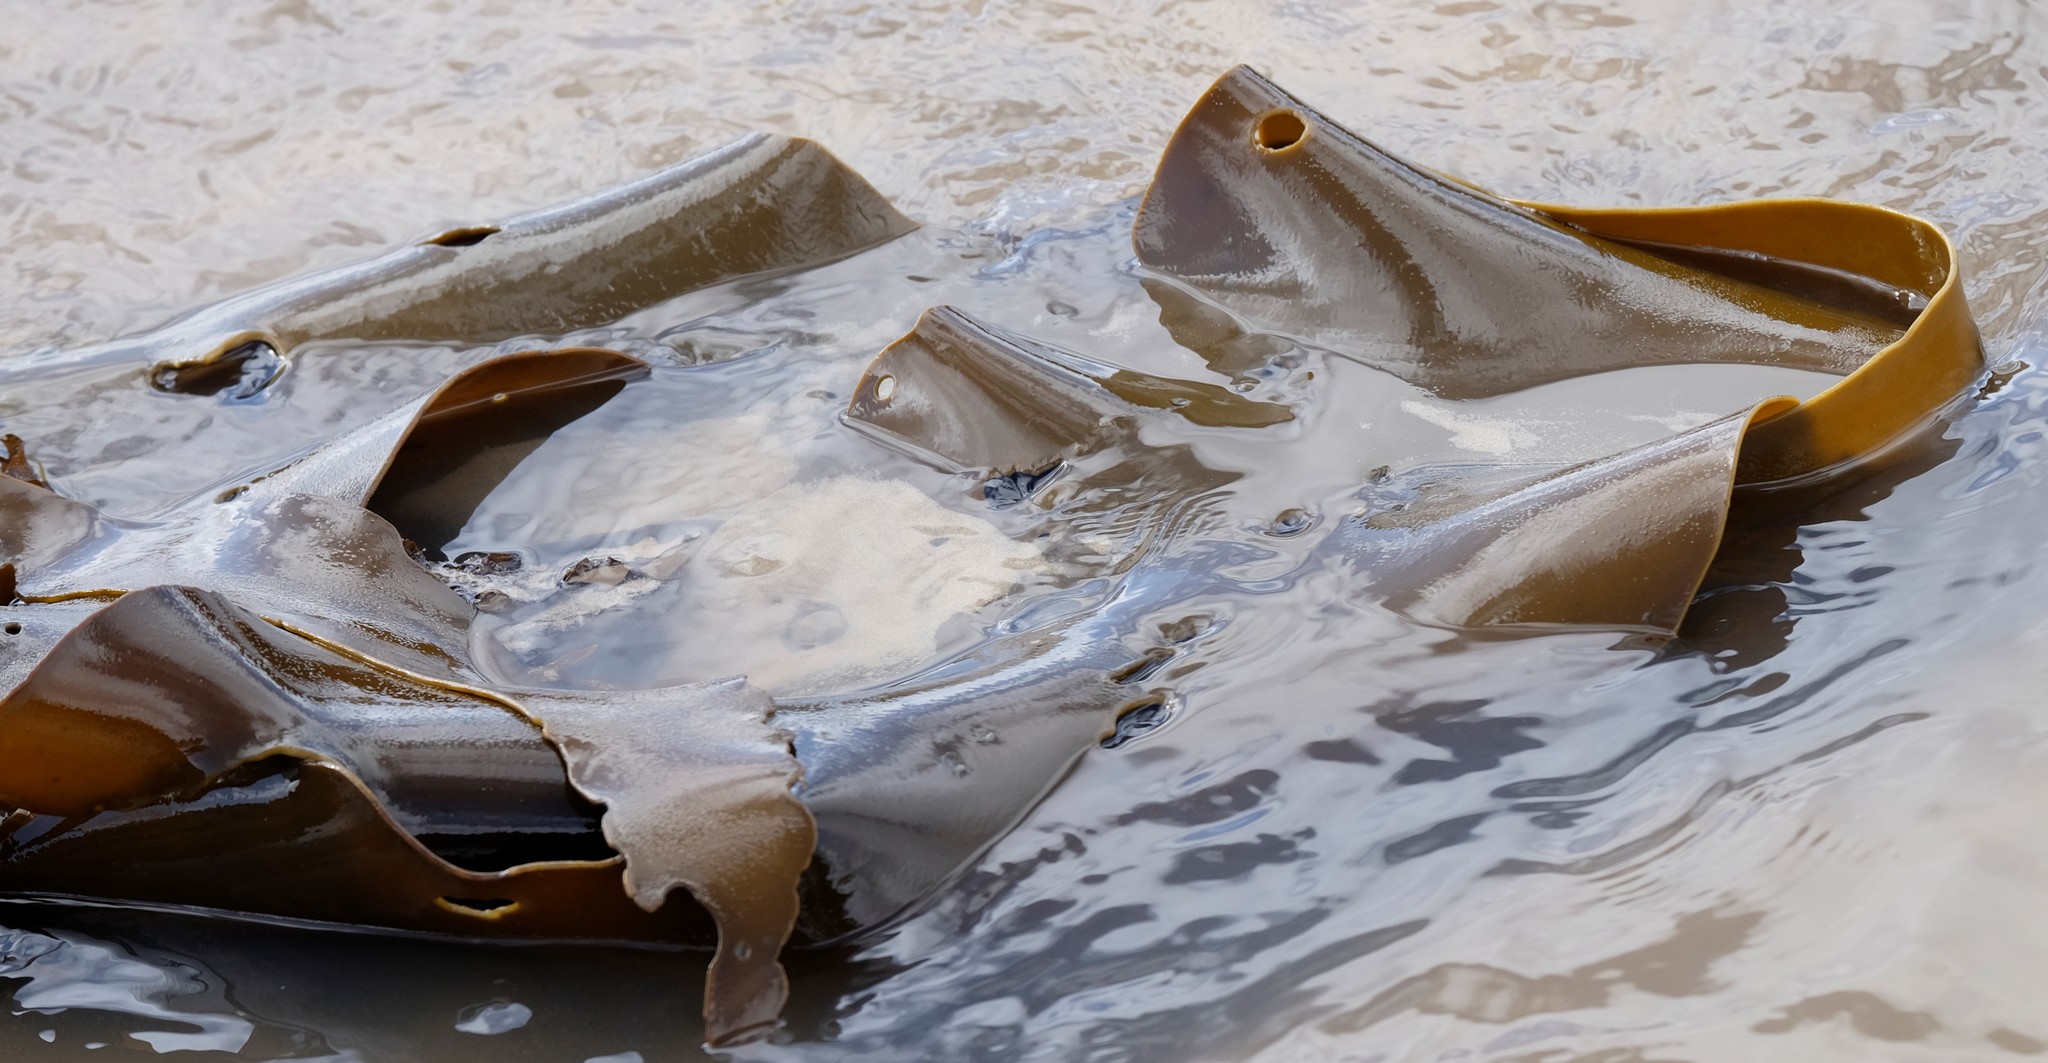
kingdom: Chromista
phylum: Ochrophyta
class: Phaeophyceae
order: Fucales
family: Durvillaeaceae
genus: Durvillaea
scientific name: Durvillaea
